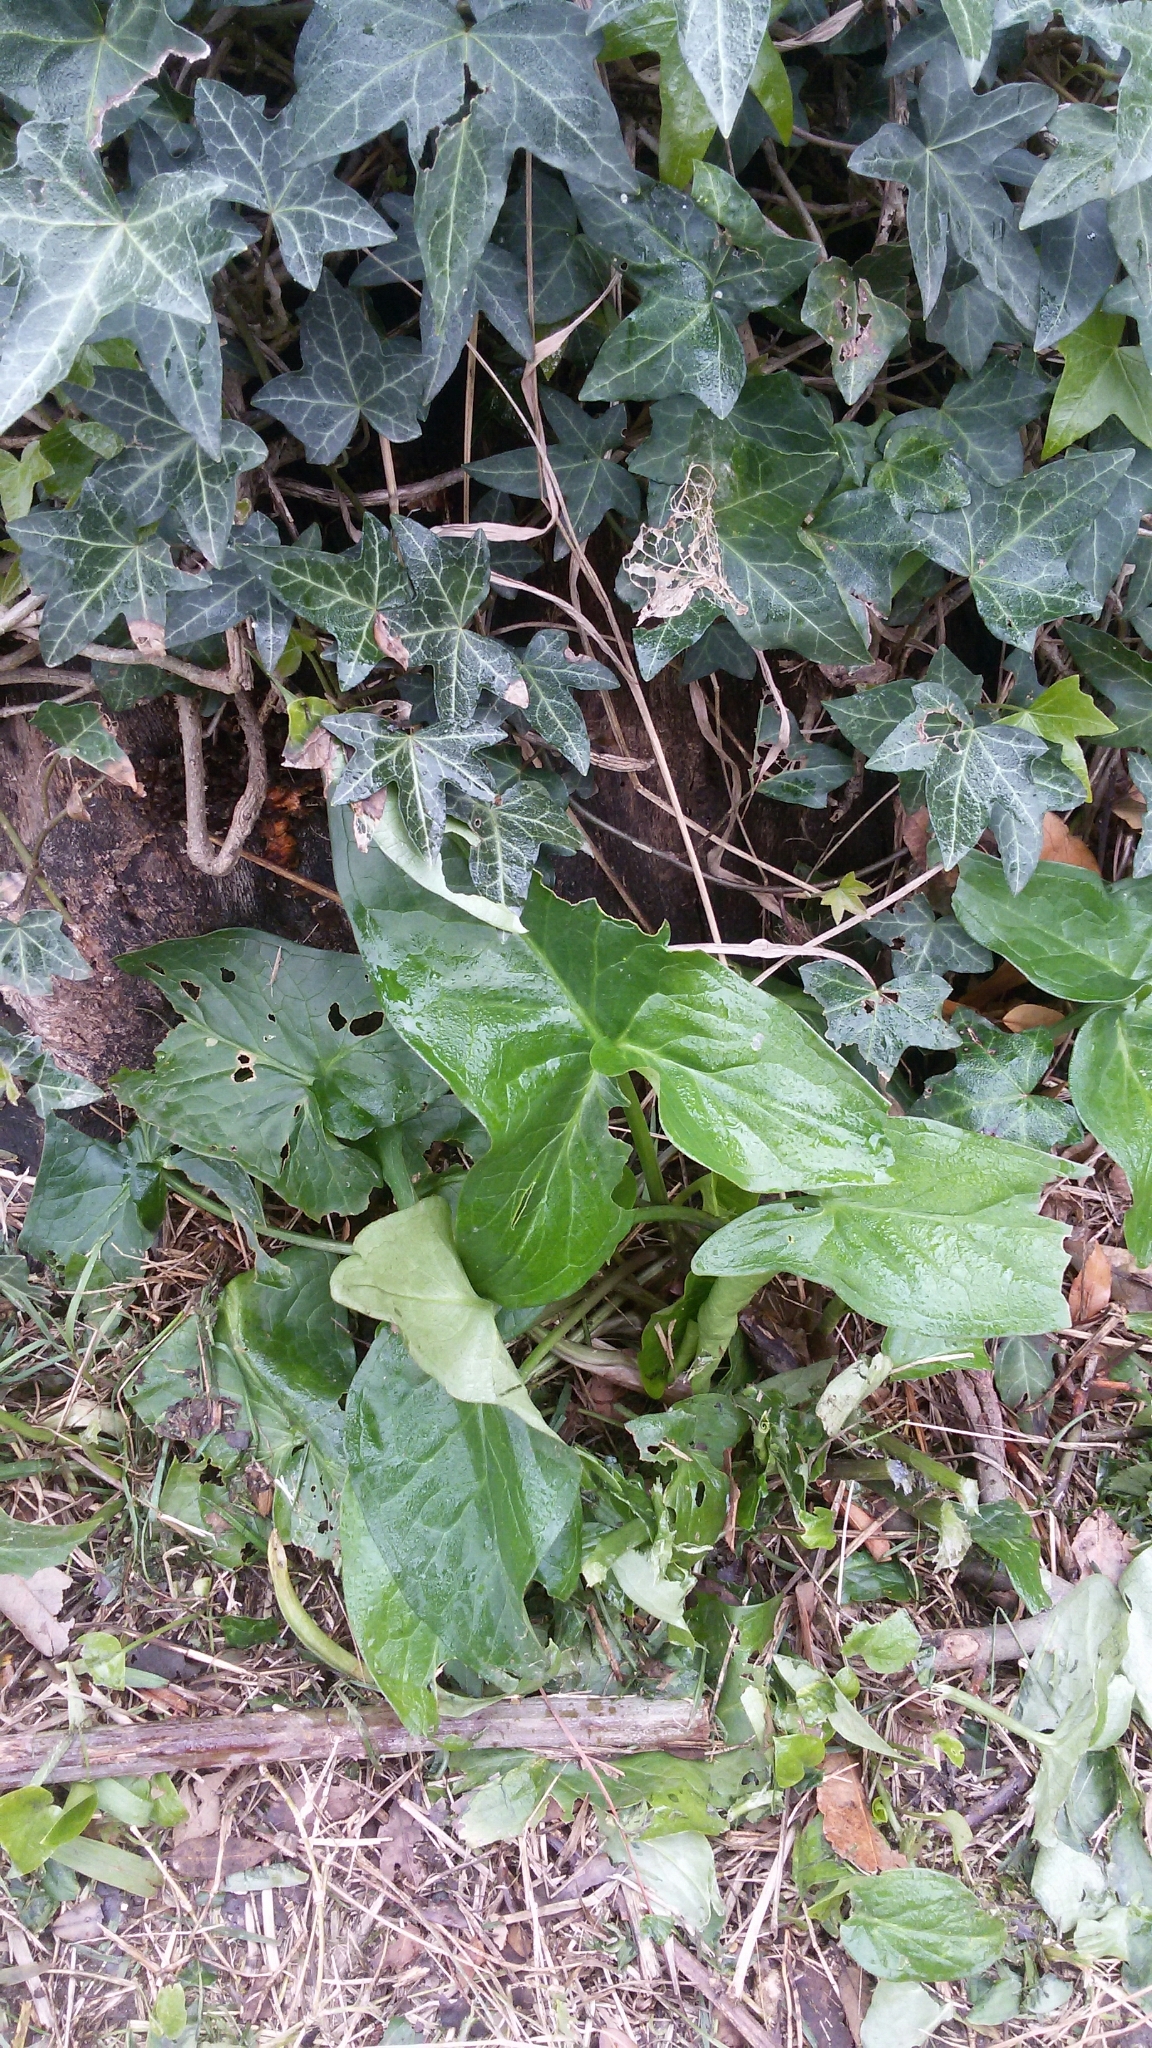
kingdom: Plantae
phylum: Tracheophyta
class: Liliopsida
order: Alismatales
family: Araceae
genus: Arum
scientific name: Arum italicum
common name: Italian lords-and-ladies
